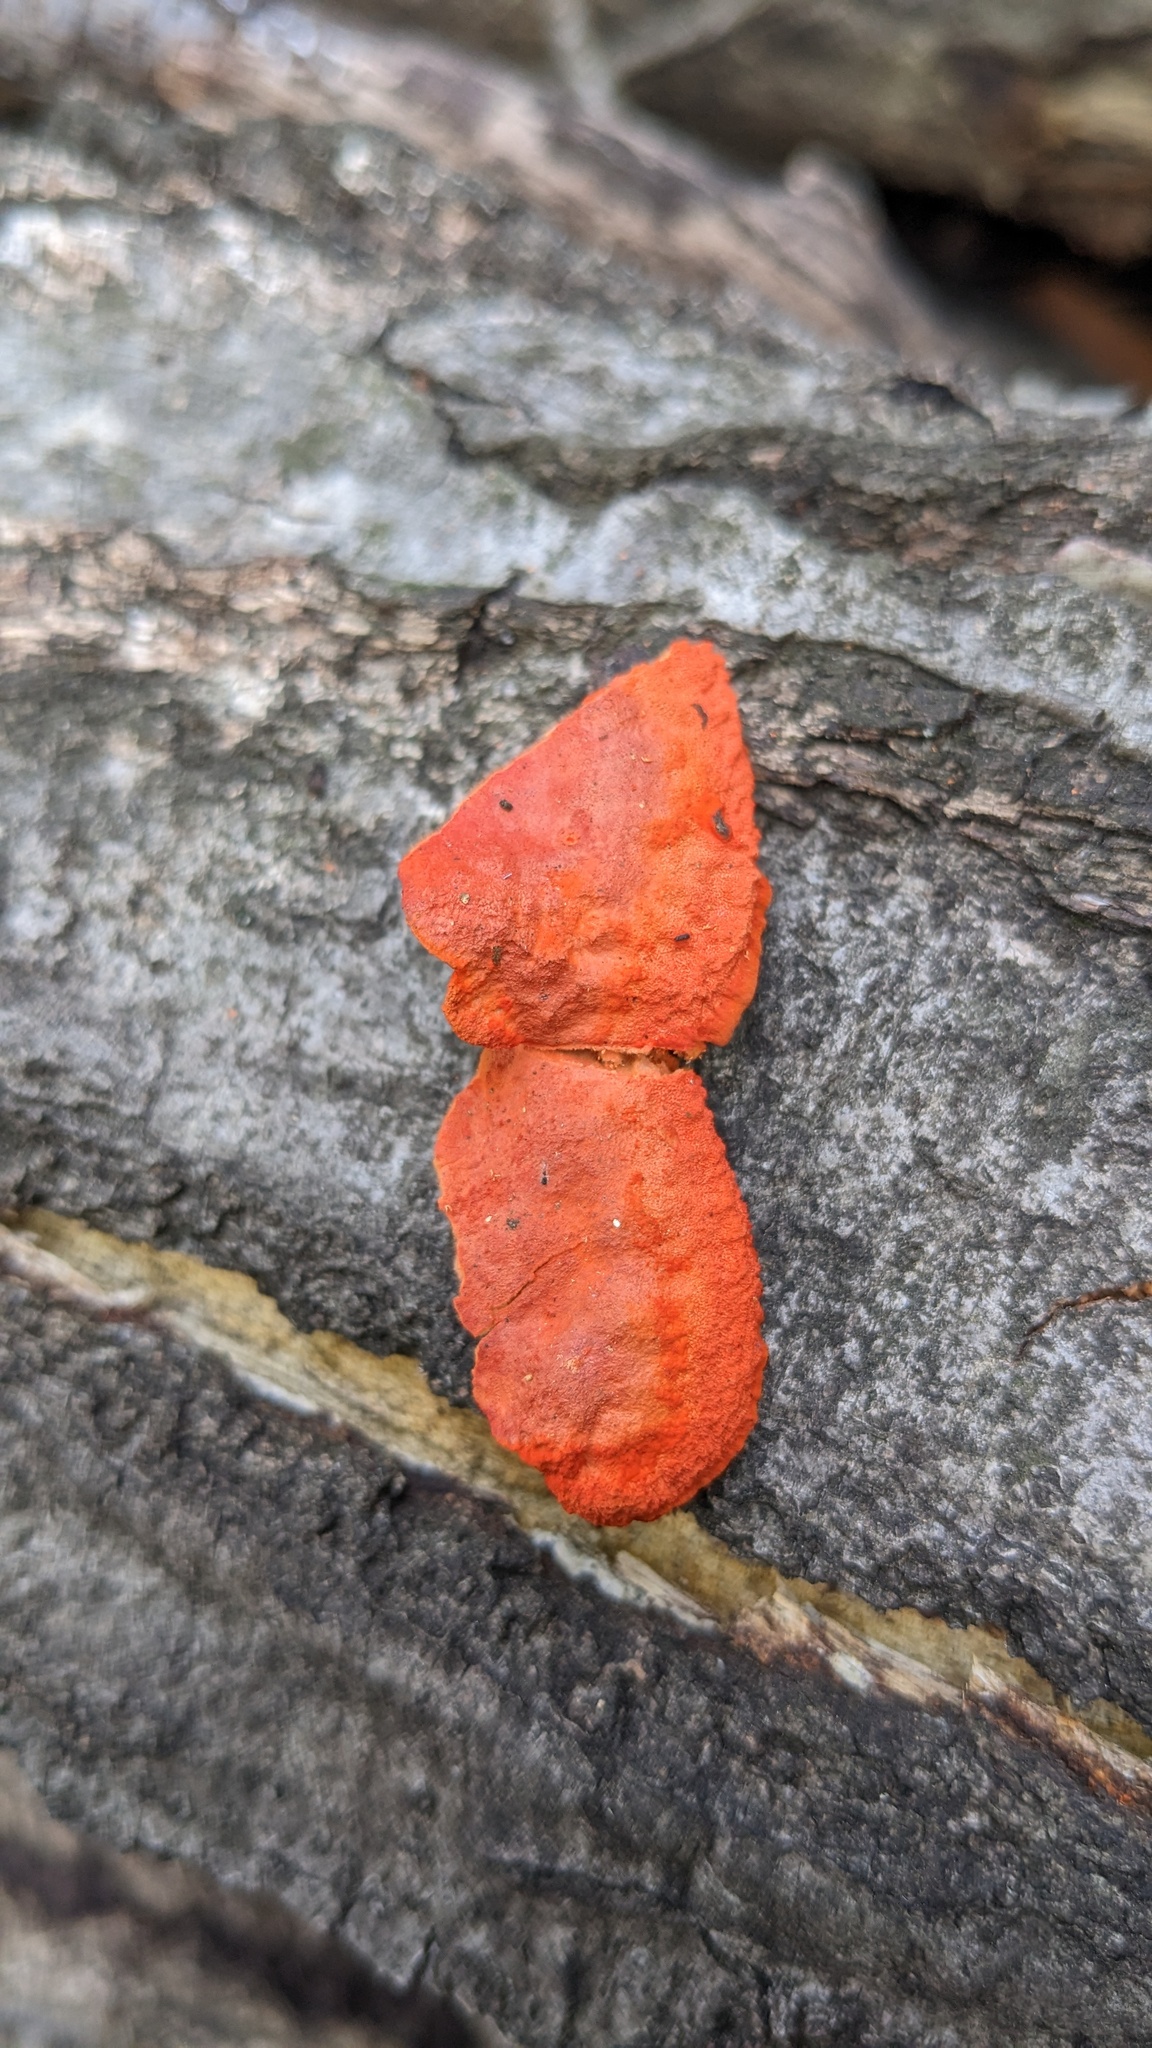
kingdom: Fungi
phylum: Basidiomycota
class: Agaricomycetes
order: Polyporales
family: Polyporaceae
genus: Trametes
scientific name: Trametes coccinea
